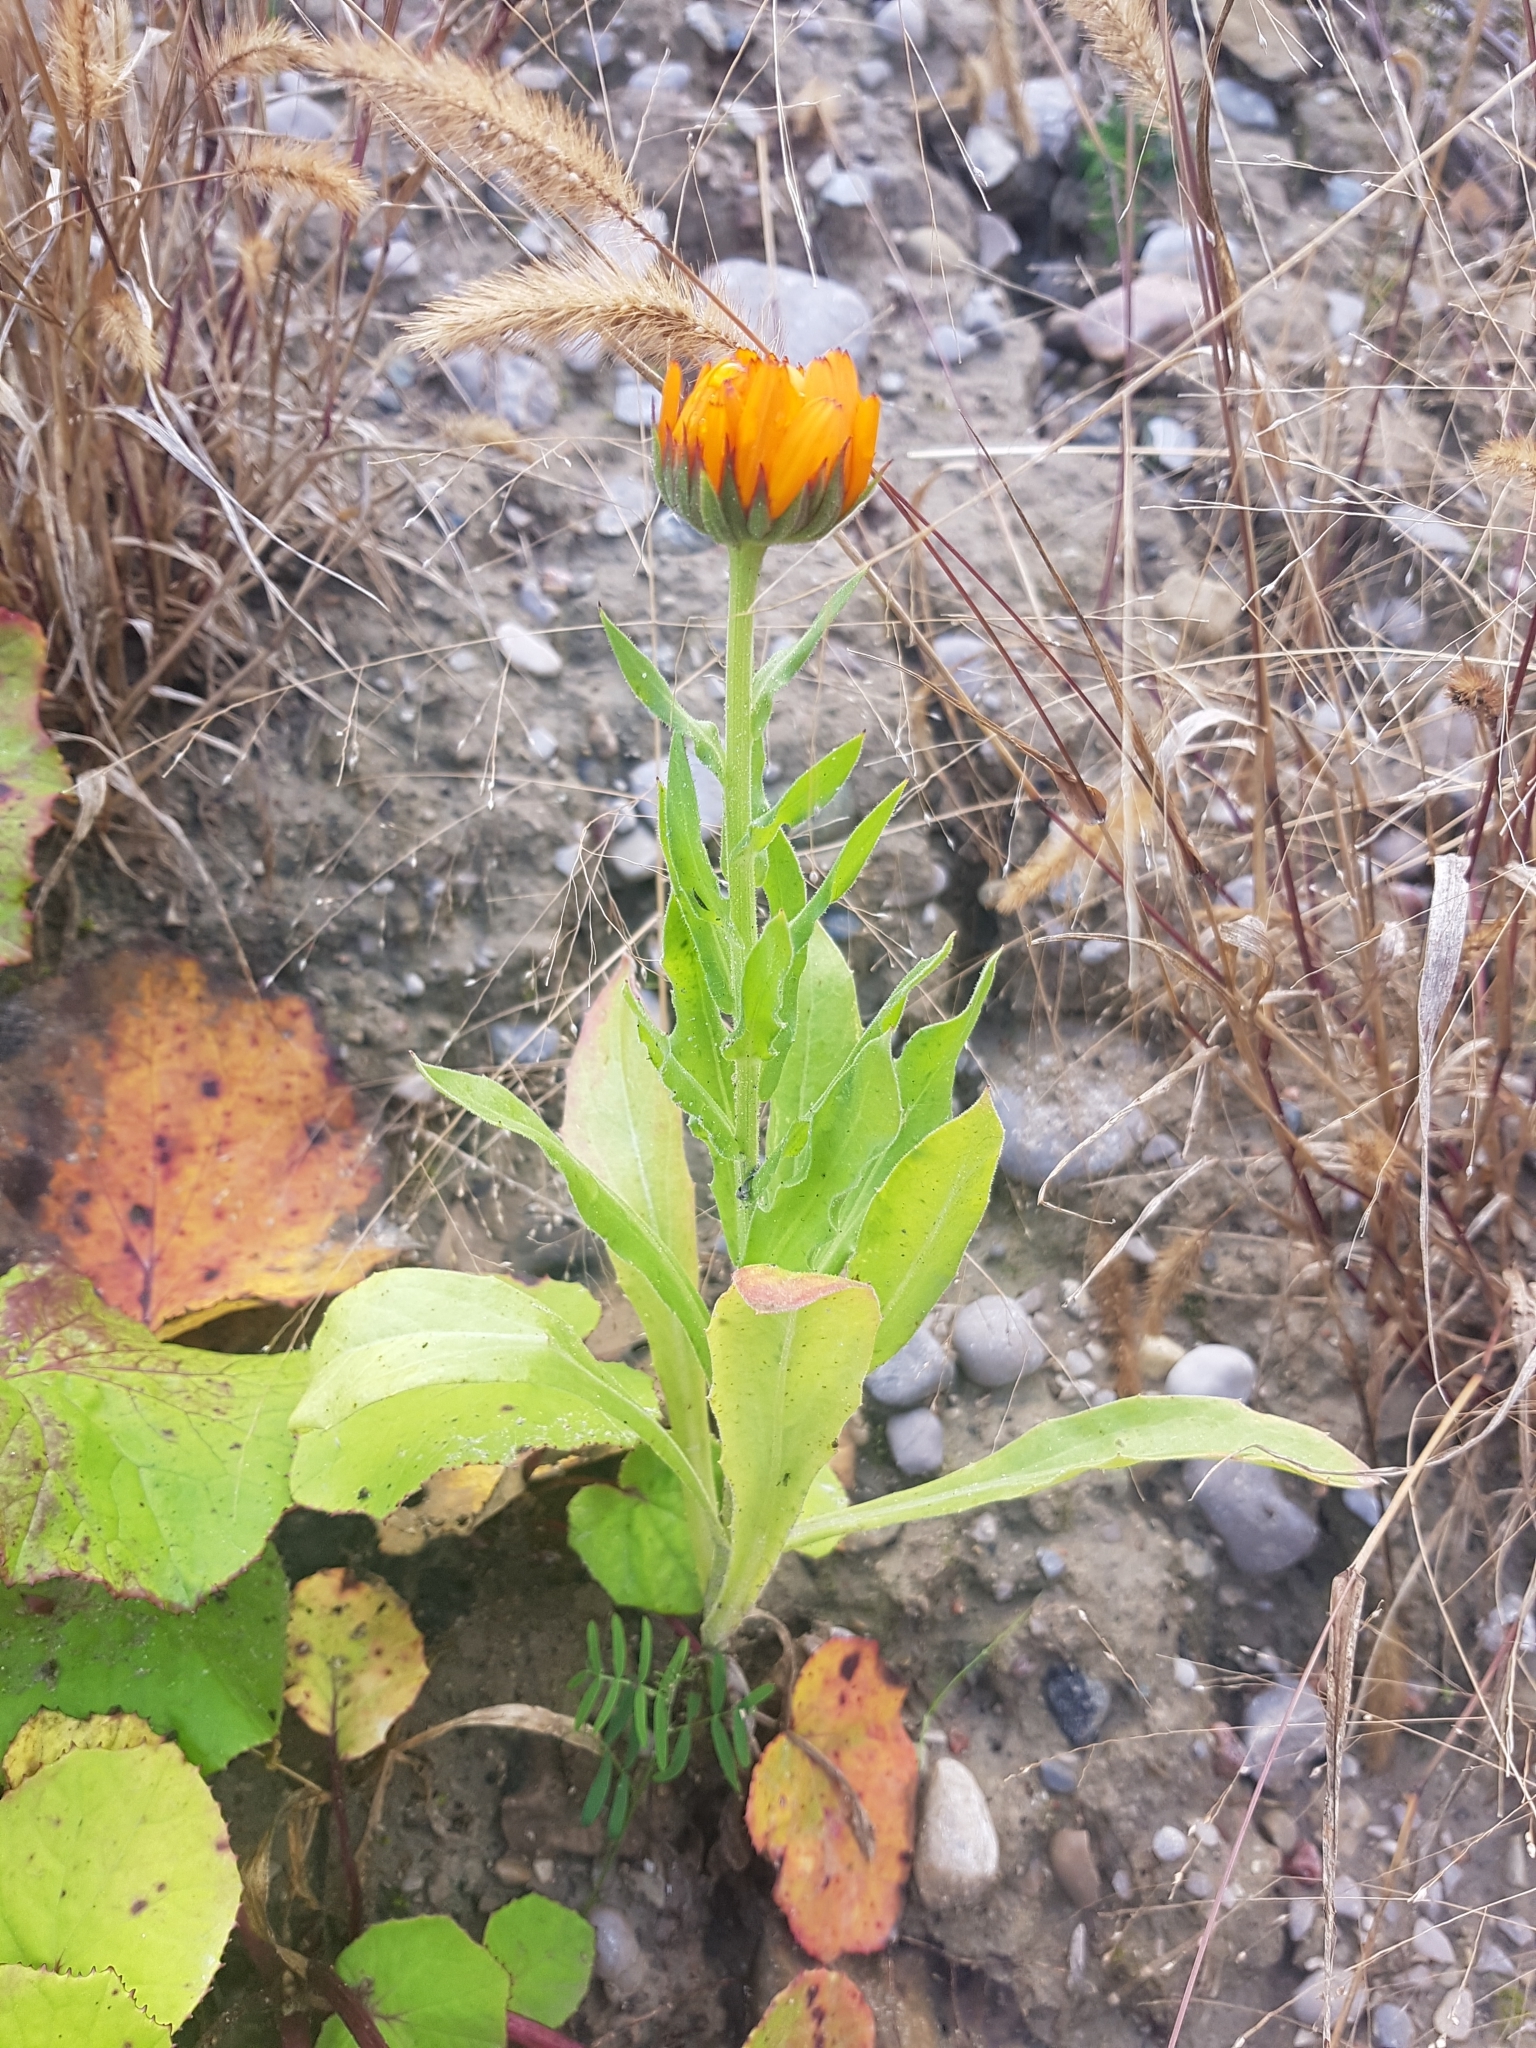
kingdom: Plantae
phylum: Tracheophyta
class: Magnoliopsida
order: Asterales
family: Asteraceae
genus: Calendula
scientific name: Calendula officinalis
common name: Pot marigold
